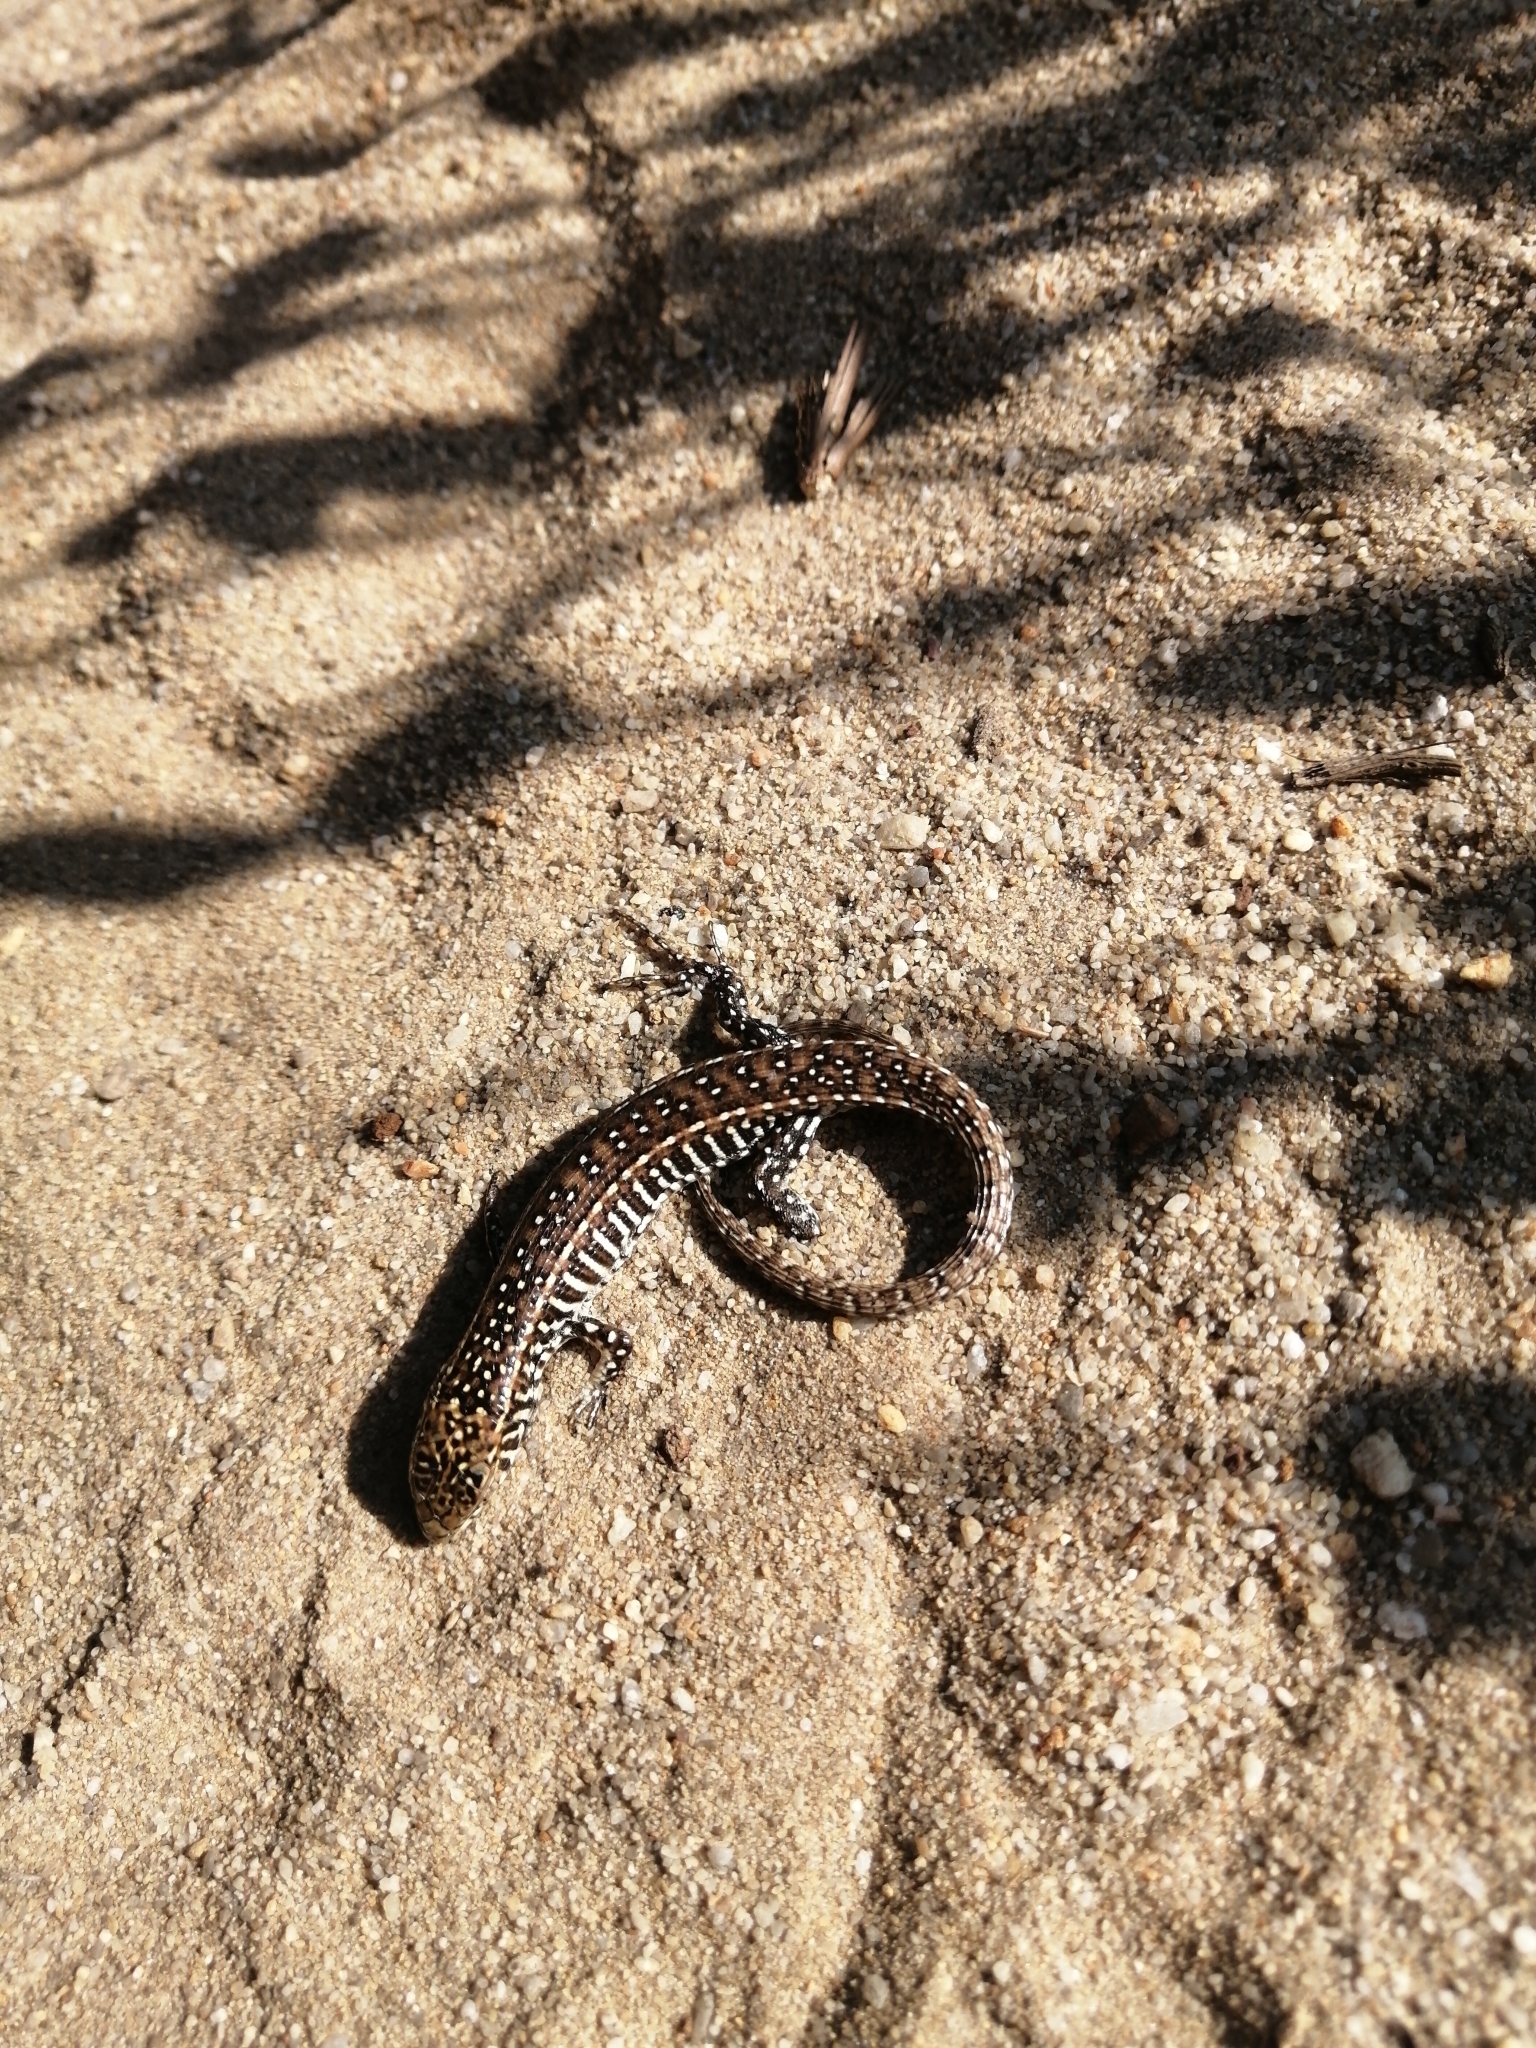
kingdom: Animalia
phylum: Chordata
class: Squamata
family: Gerrhosauridae
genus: Gerrhosaurus
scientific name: Gerrhosaurus flavigularis
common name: Yellow-throated plated lizard
